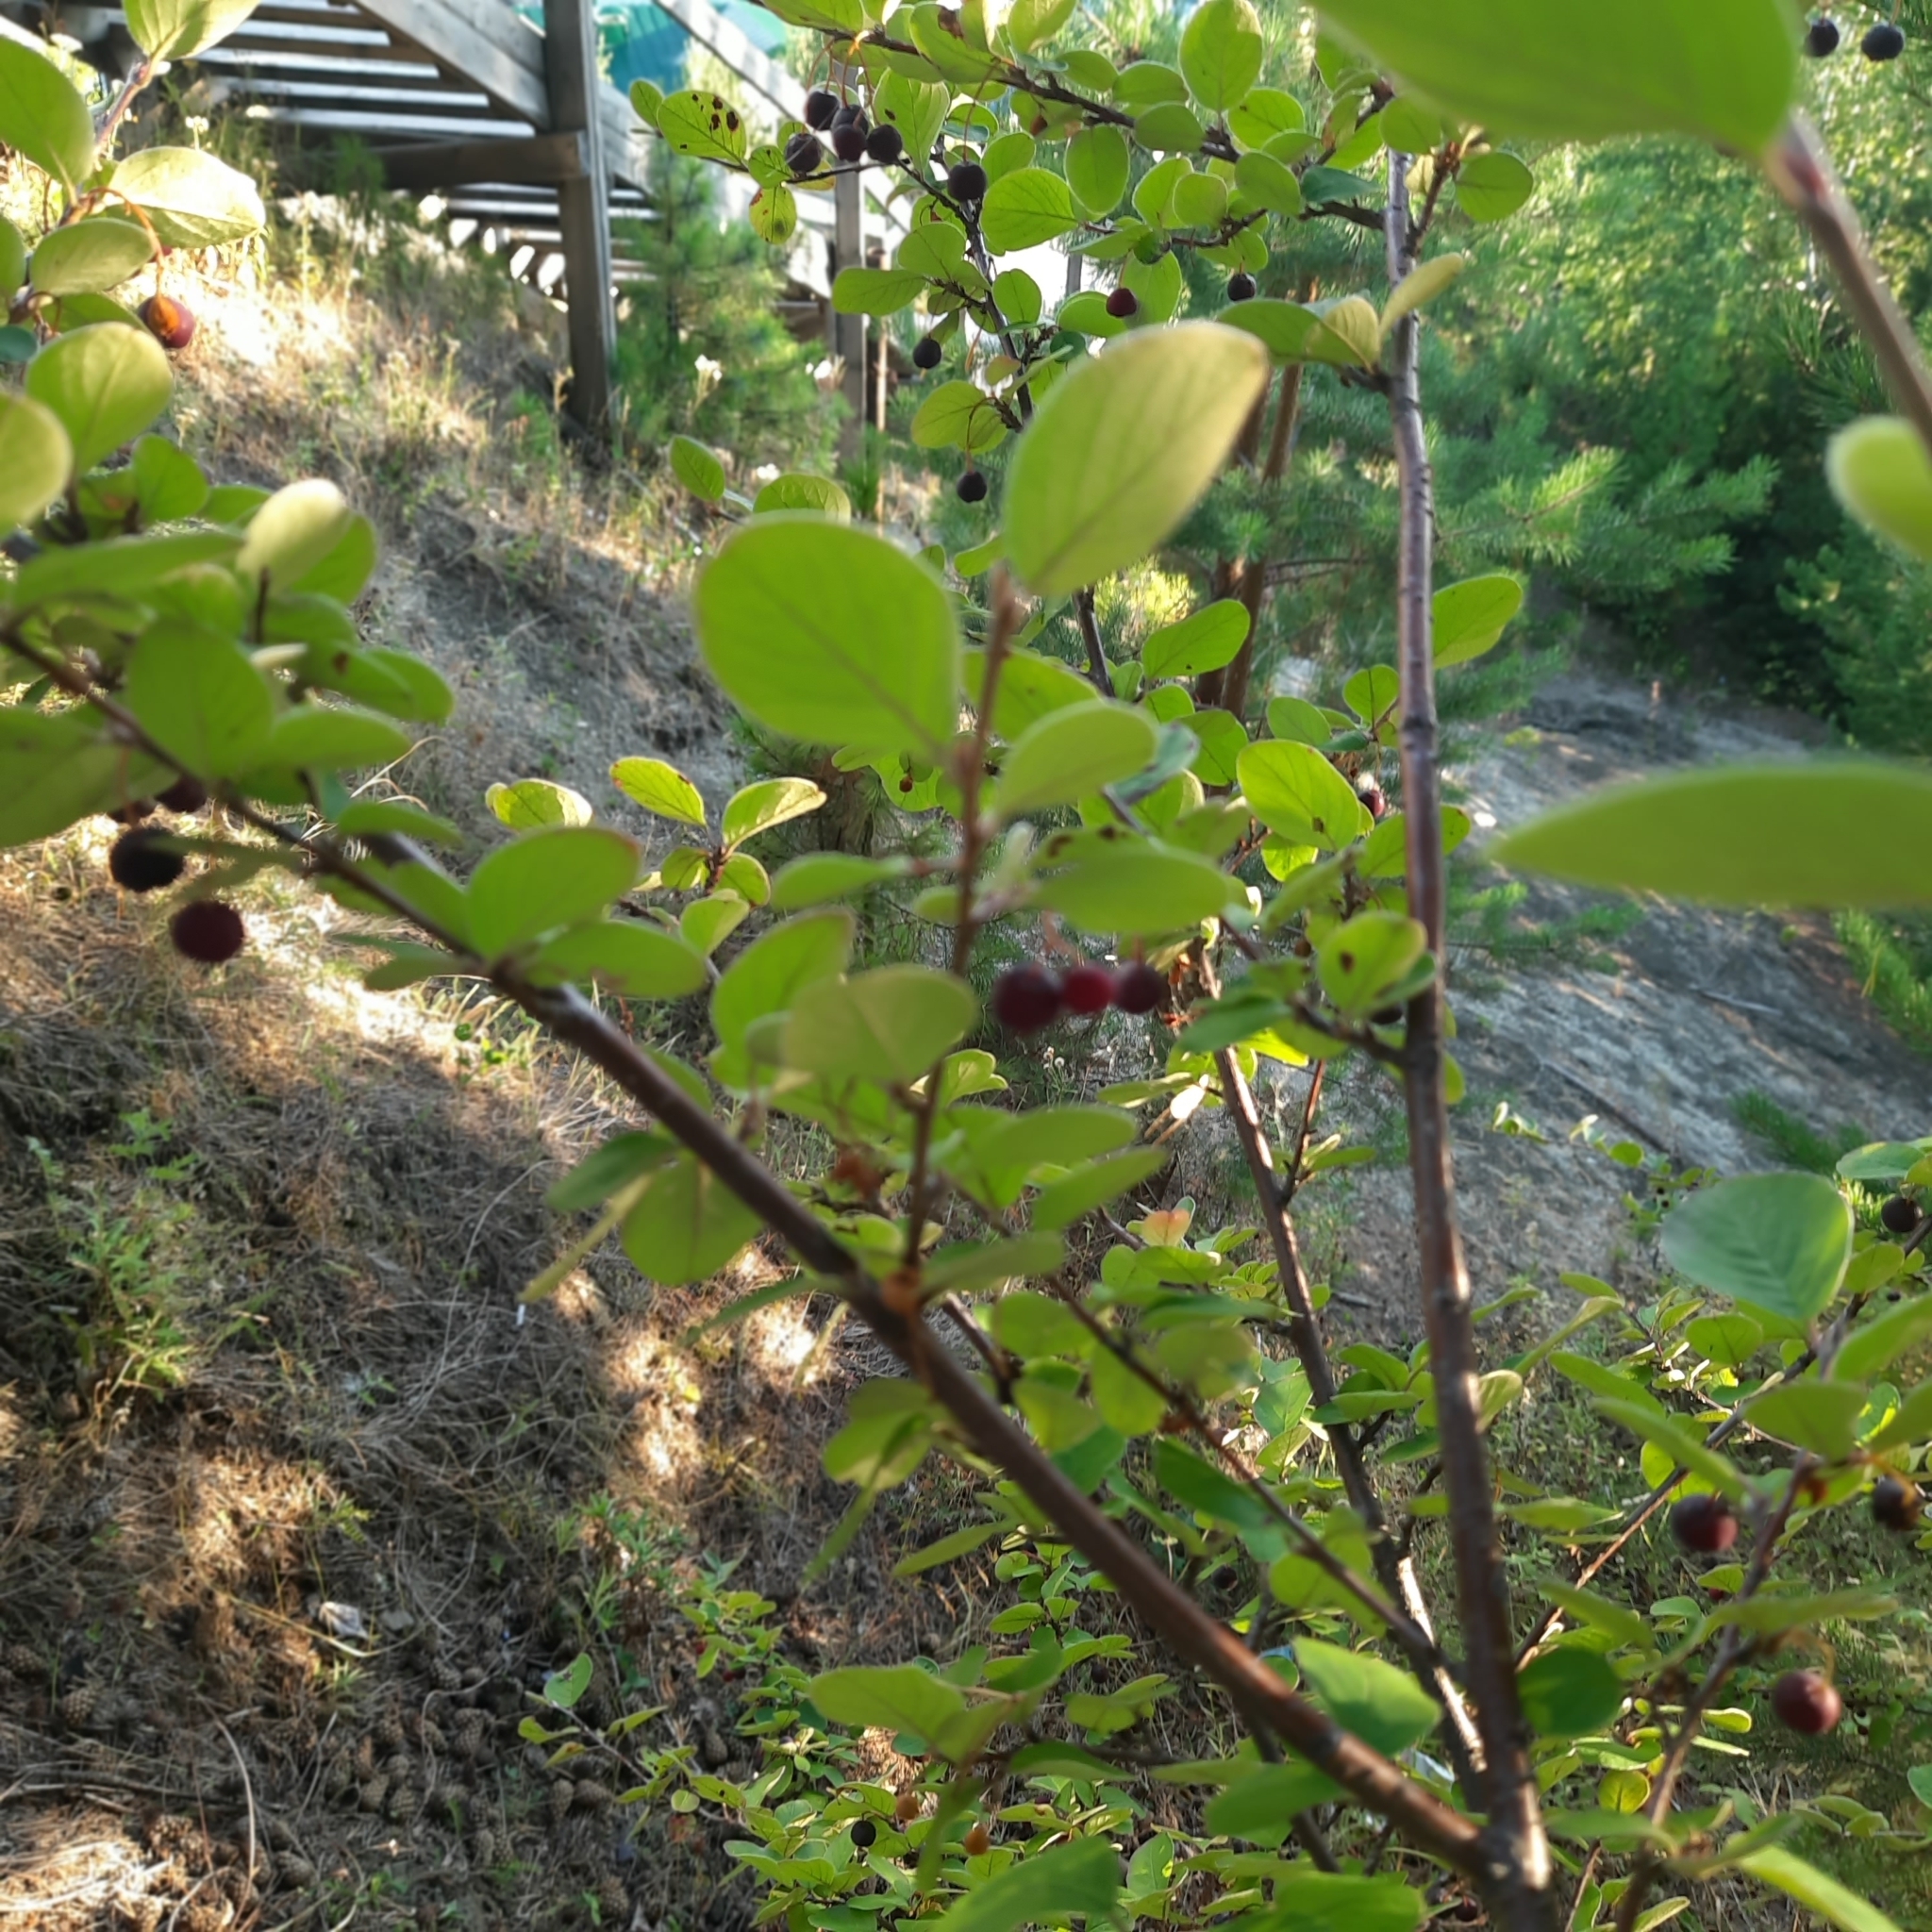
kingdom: Plantae
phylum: Tracheophyta
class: Magnoliopsida
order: Rosales
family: Rosaceae
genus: Cotoneaster
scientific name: Cotoneaster melanocarpus
